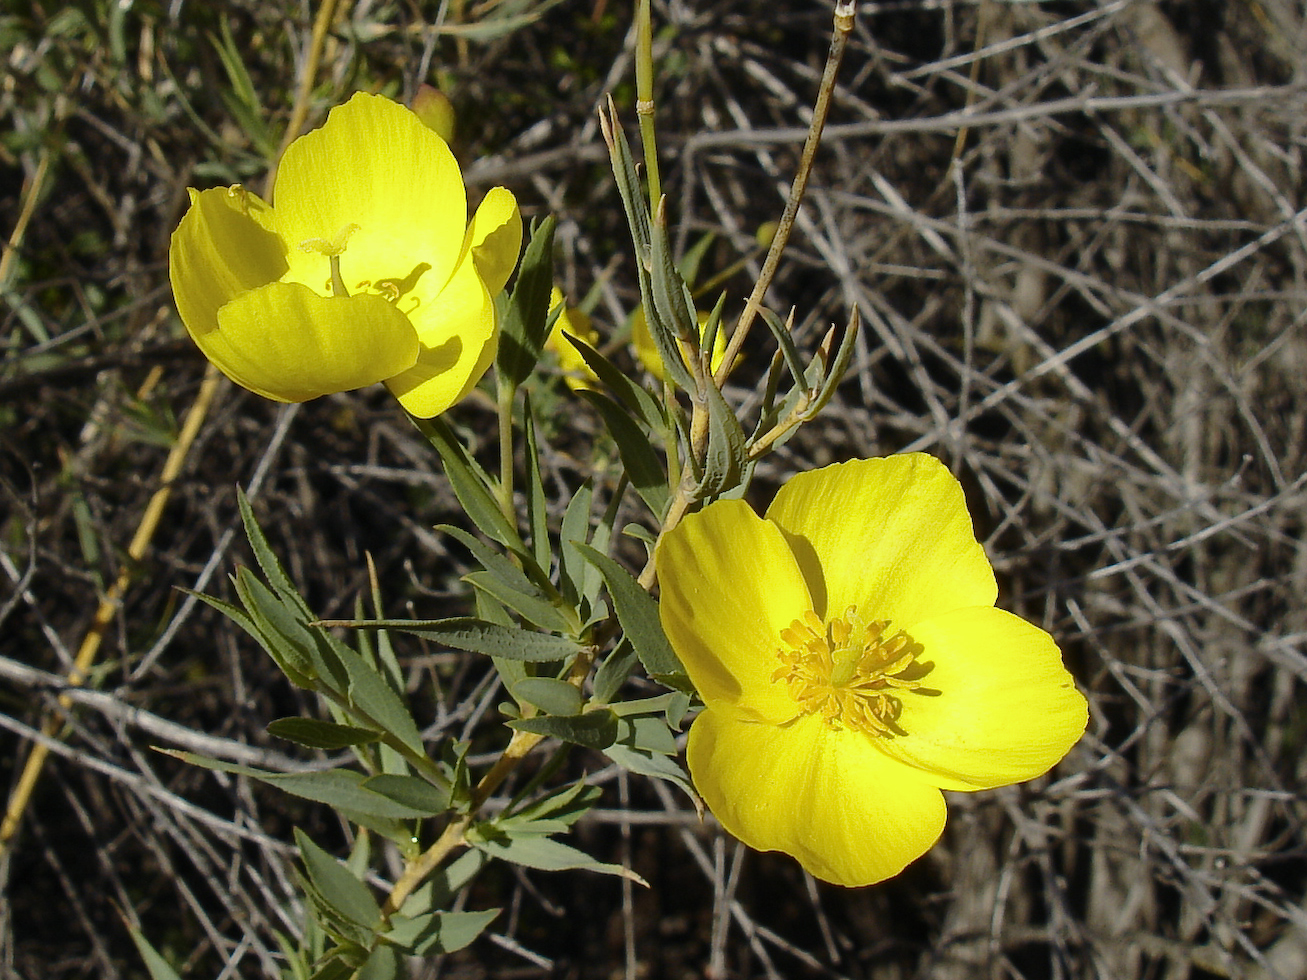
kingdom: Plantae
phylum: Tracheophyta
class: Magnoliopsida
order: Ranunculales
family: Papaveraceae
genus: Dendromecon
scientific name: Dendromecon rigida
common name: Tree poppy
